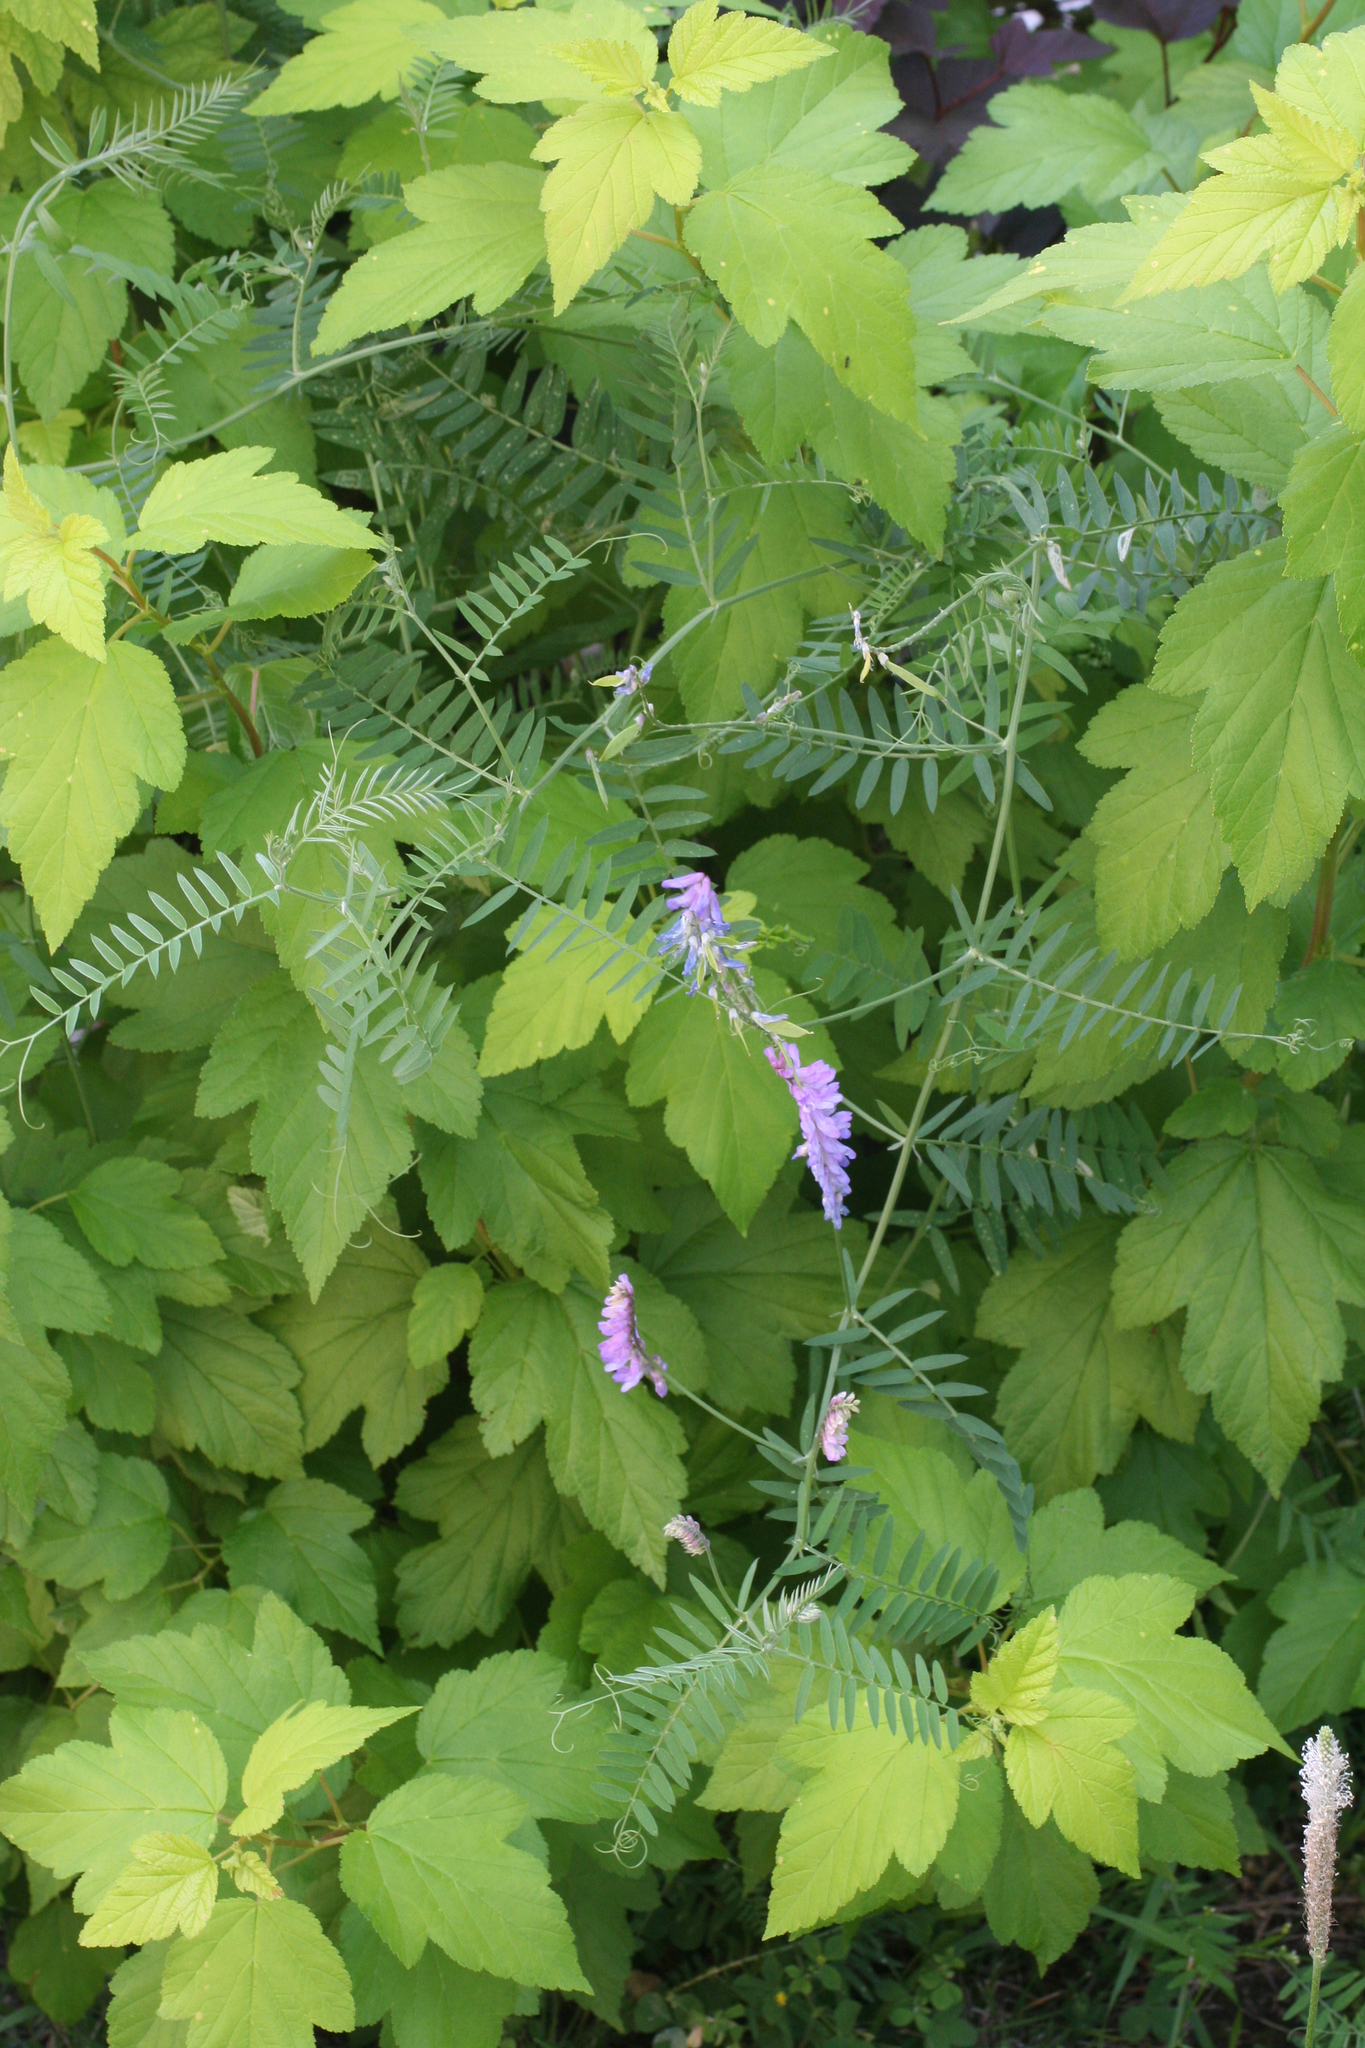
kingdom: Plantae
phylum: Tracheophyta
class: Magnoliopsida
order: Fabales
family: Fabaceae
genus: Vicia
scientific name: Vicia cracca
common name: Bird vetch
